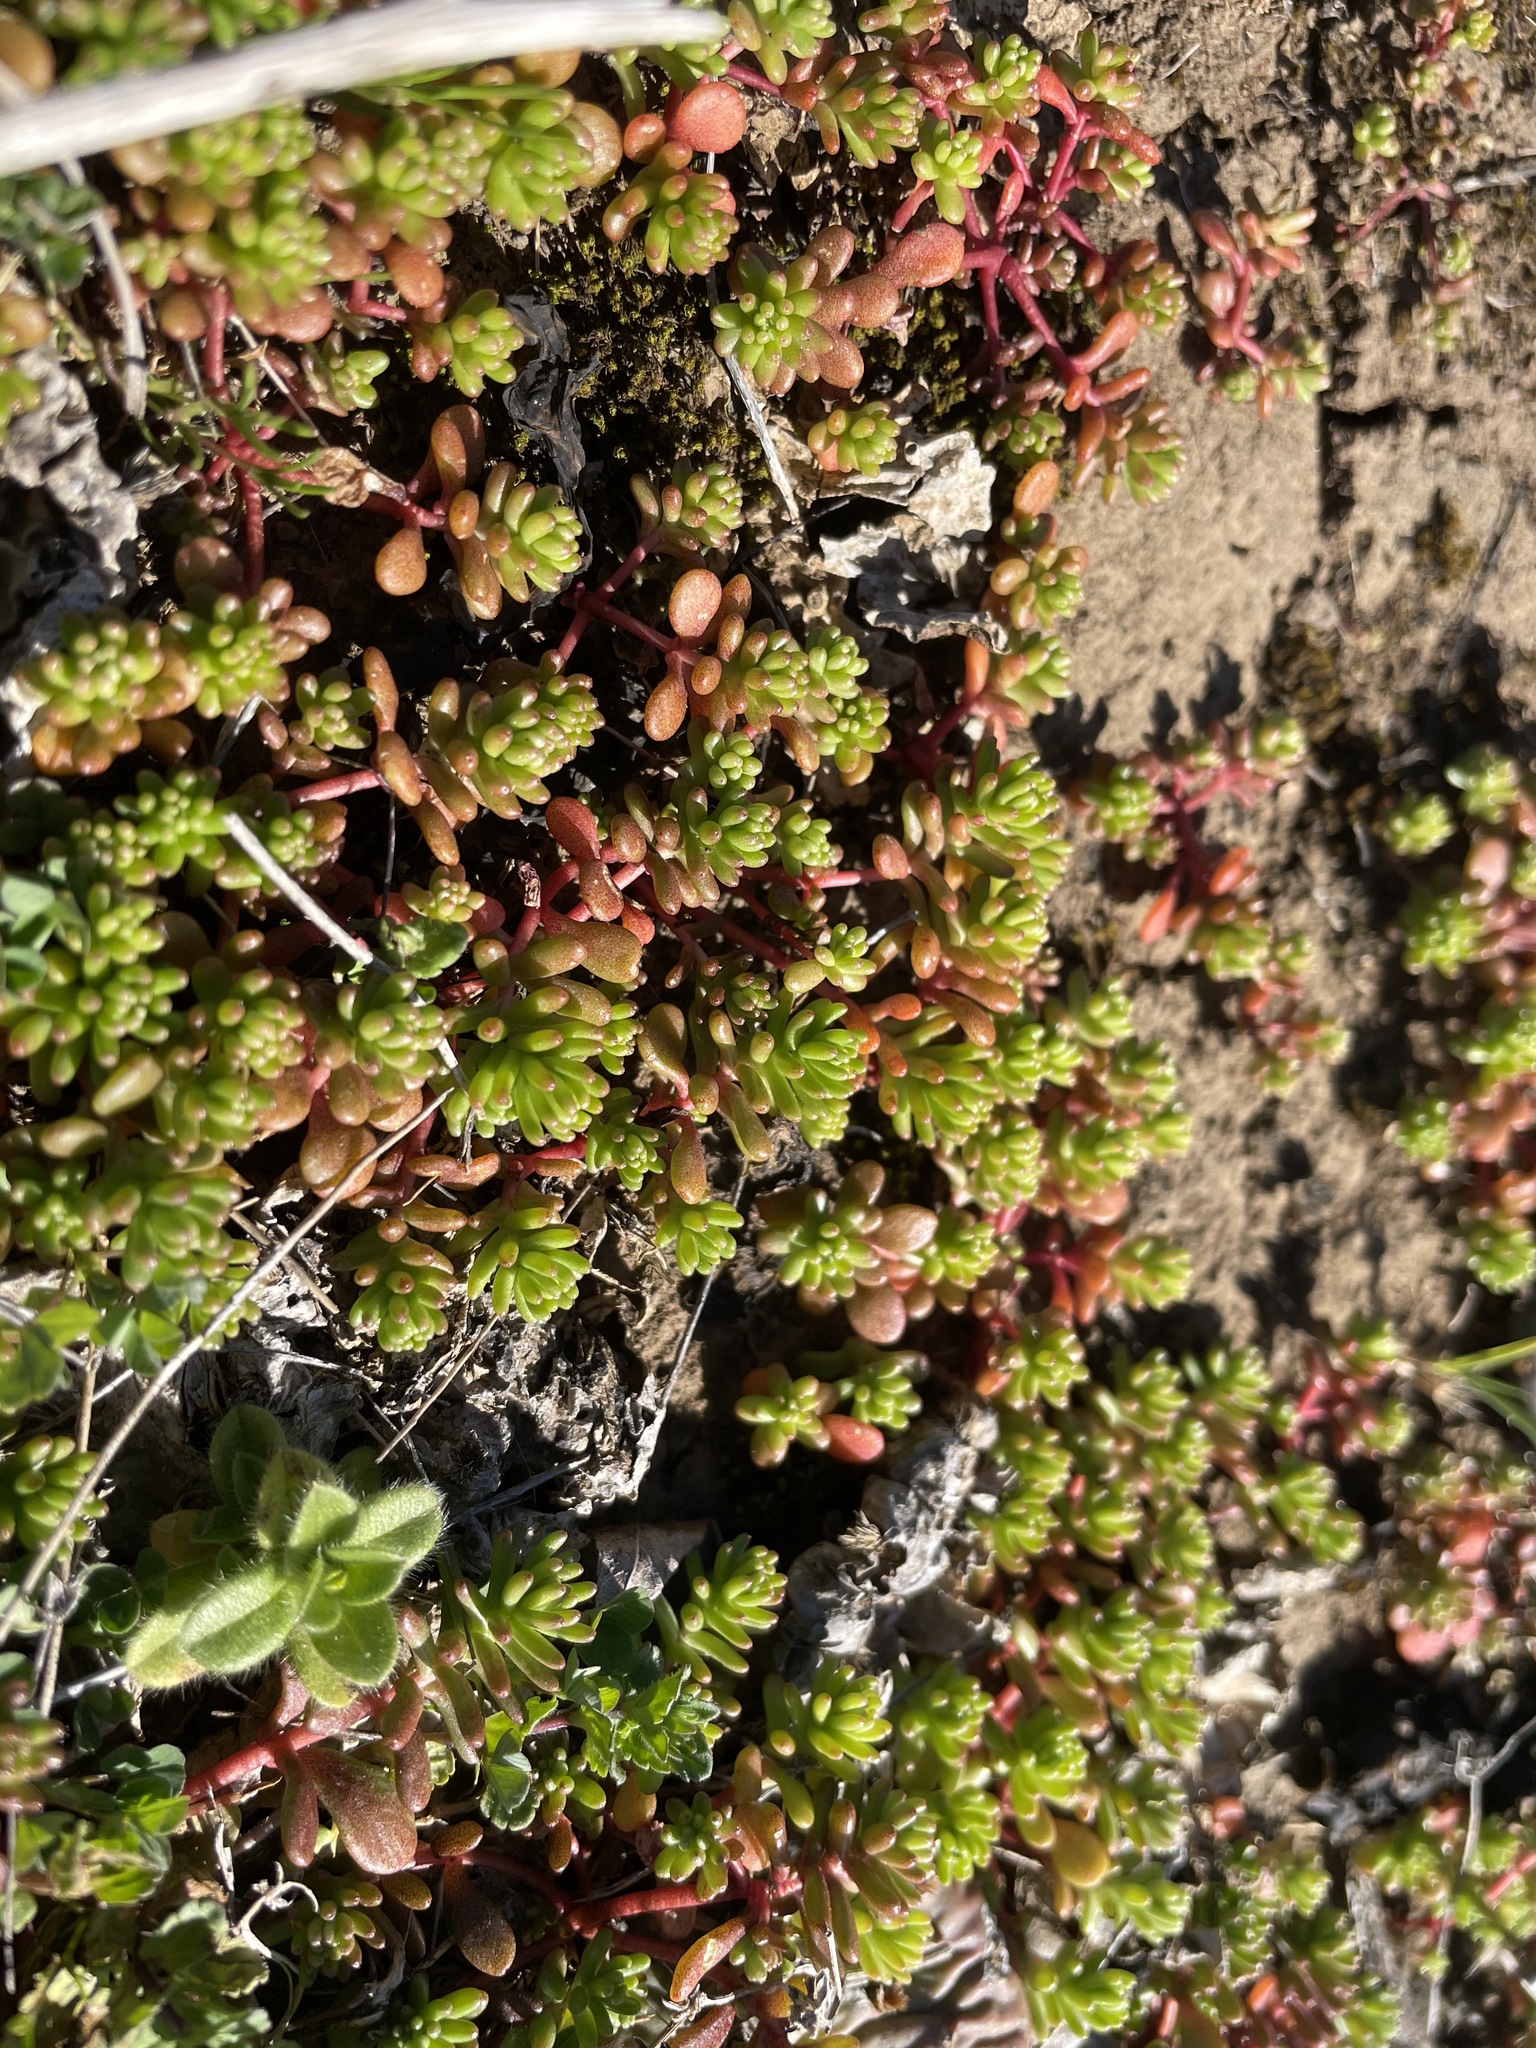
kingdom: Plantae
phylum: Tracheophyta
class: Magnoliopsida
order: Saxifragales
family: Crassulaceae
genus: Sedum
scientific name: Sedum pulchellum
